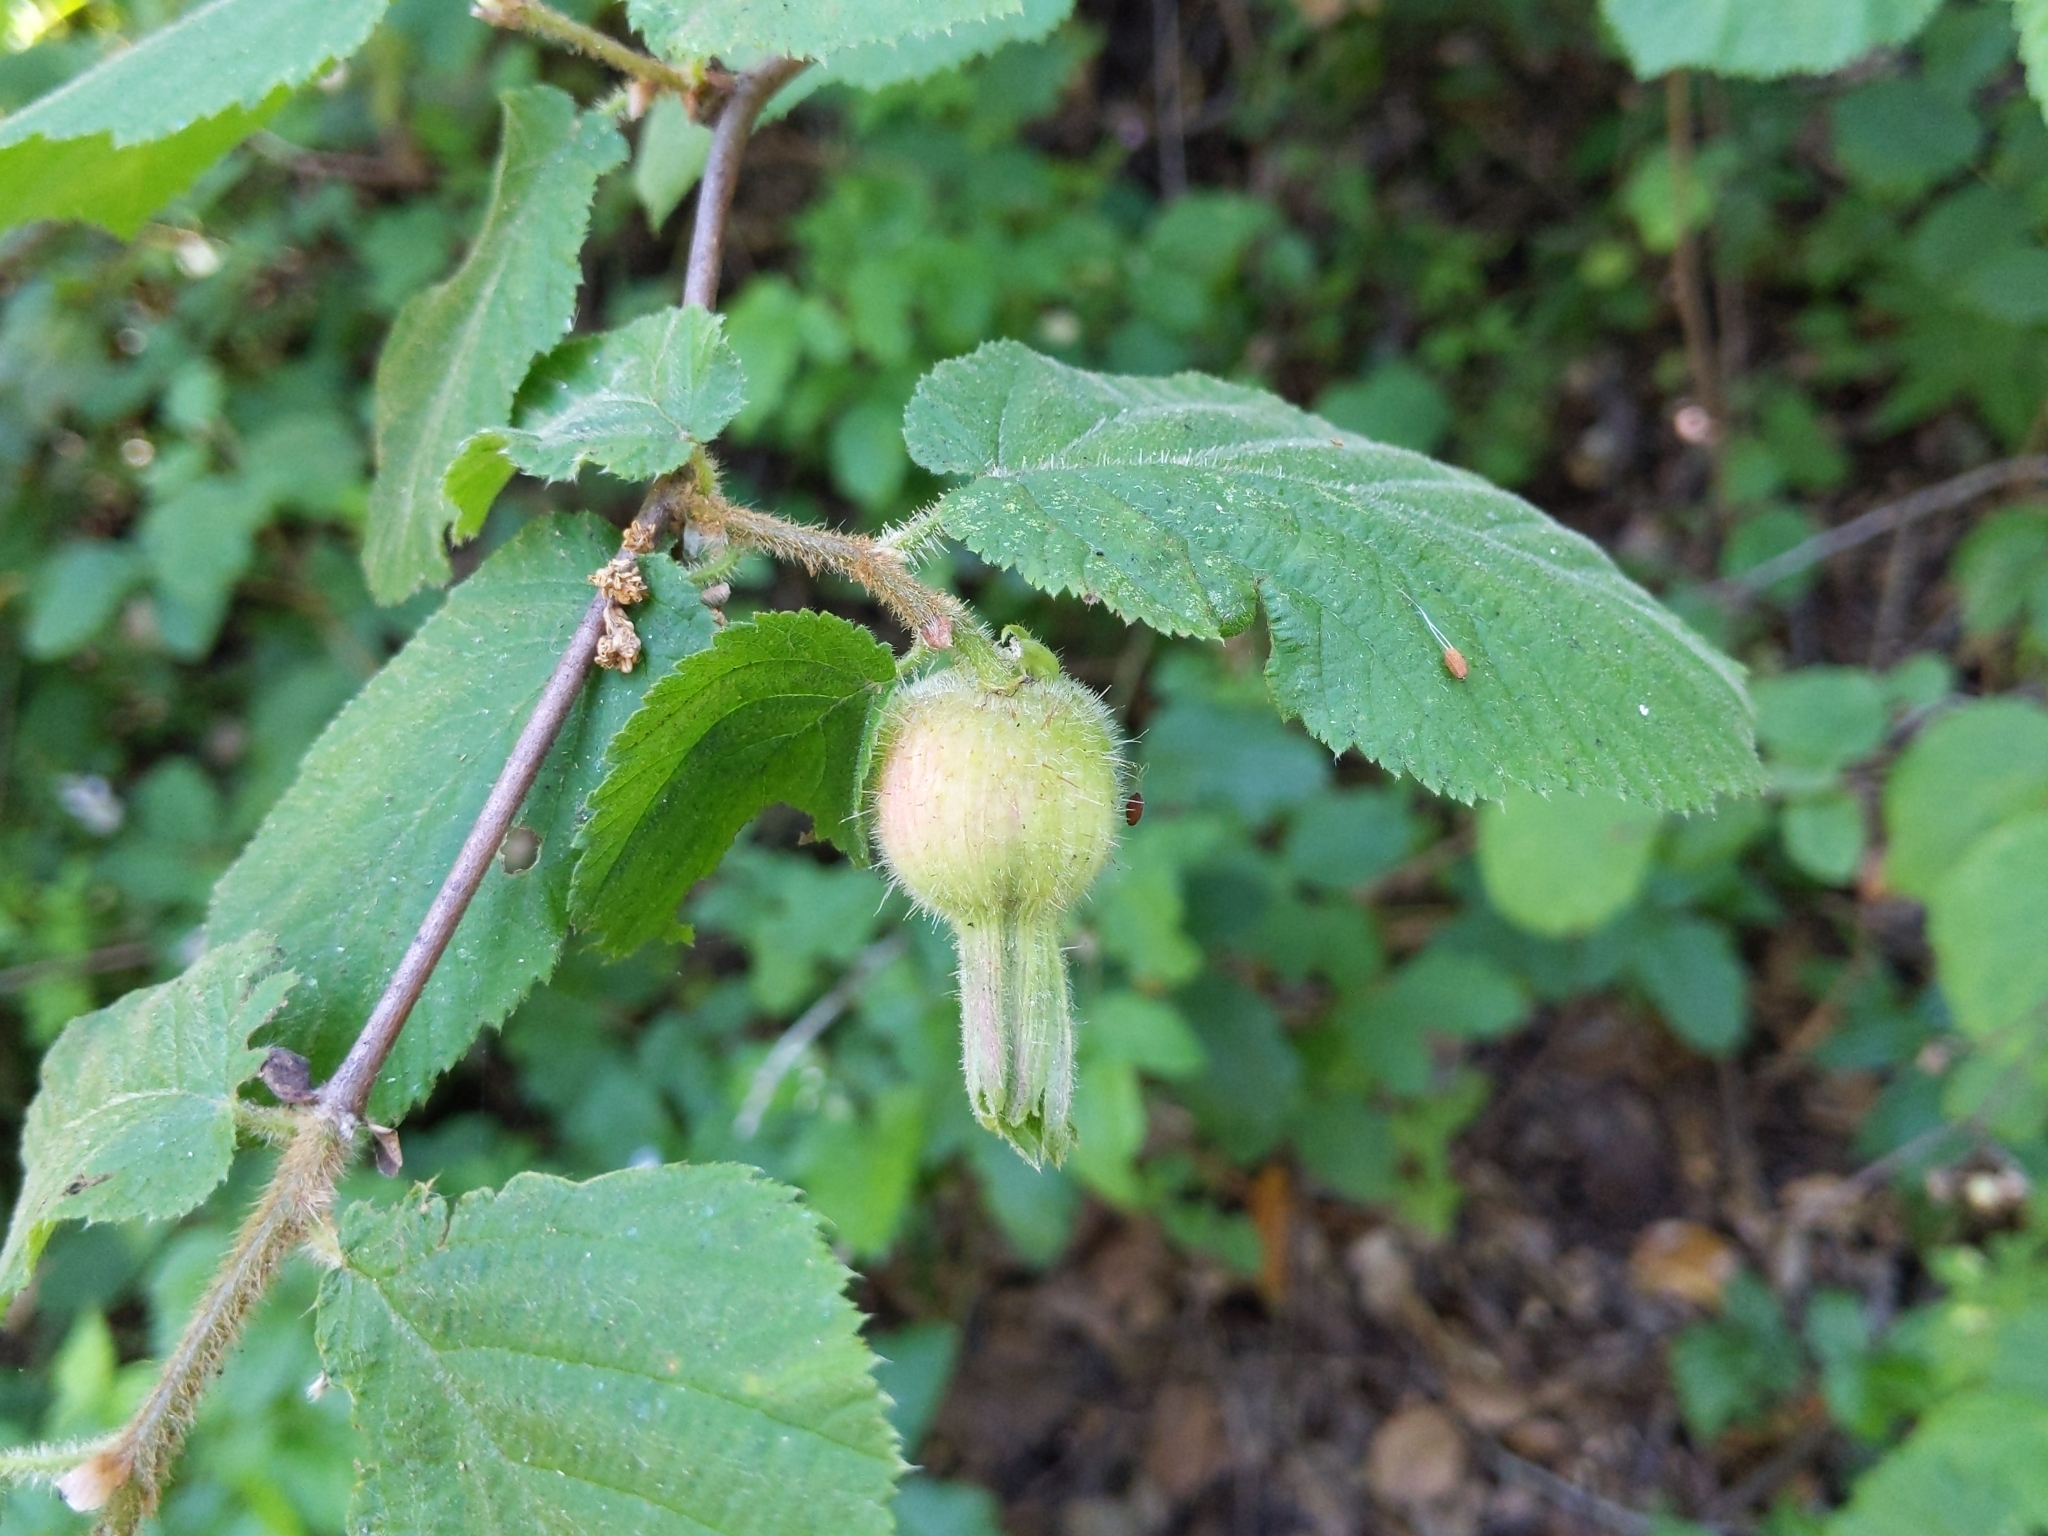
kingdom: Plantae
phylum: Tracheophyta
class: Magnoliopsida
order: Fagales
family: Betulaceae
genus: Corylus
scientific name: Corylus cornuta
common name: Beaked hazel
